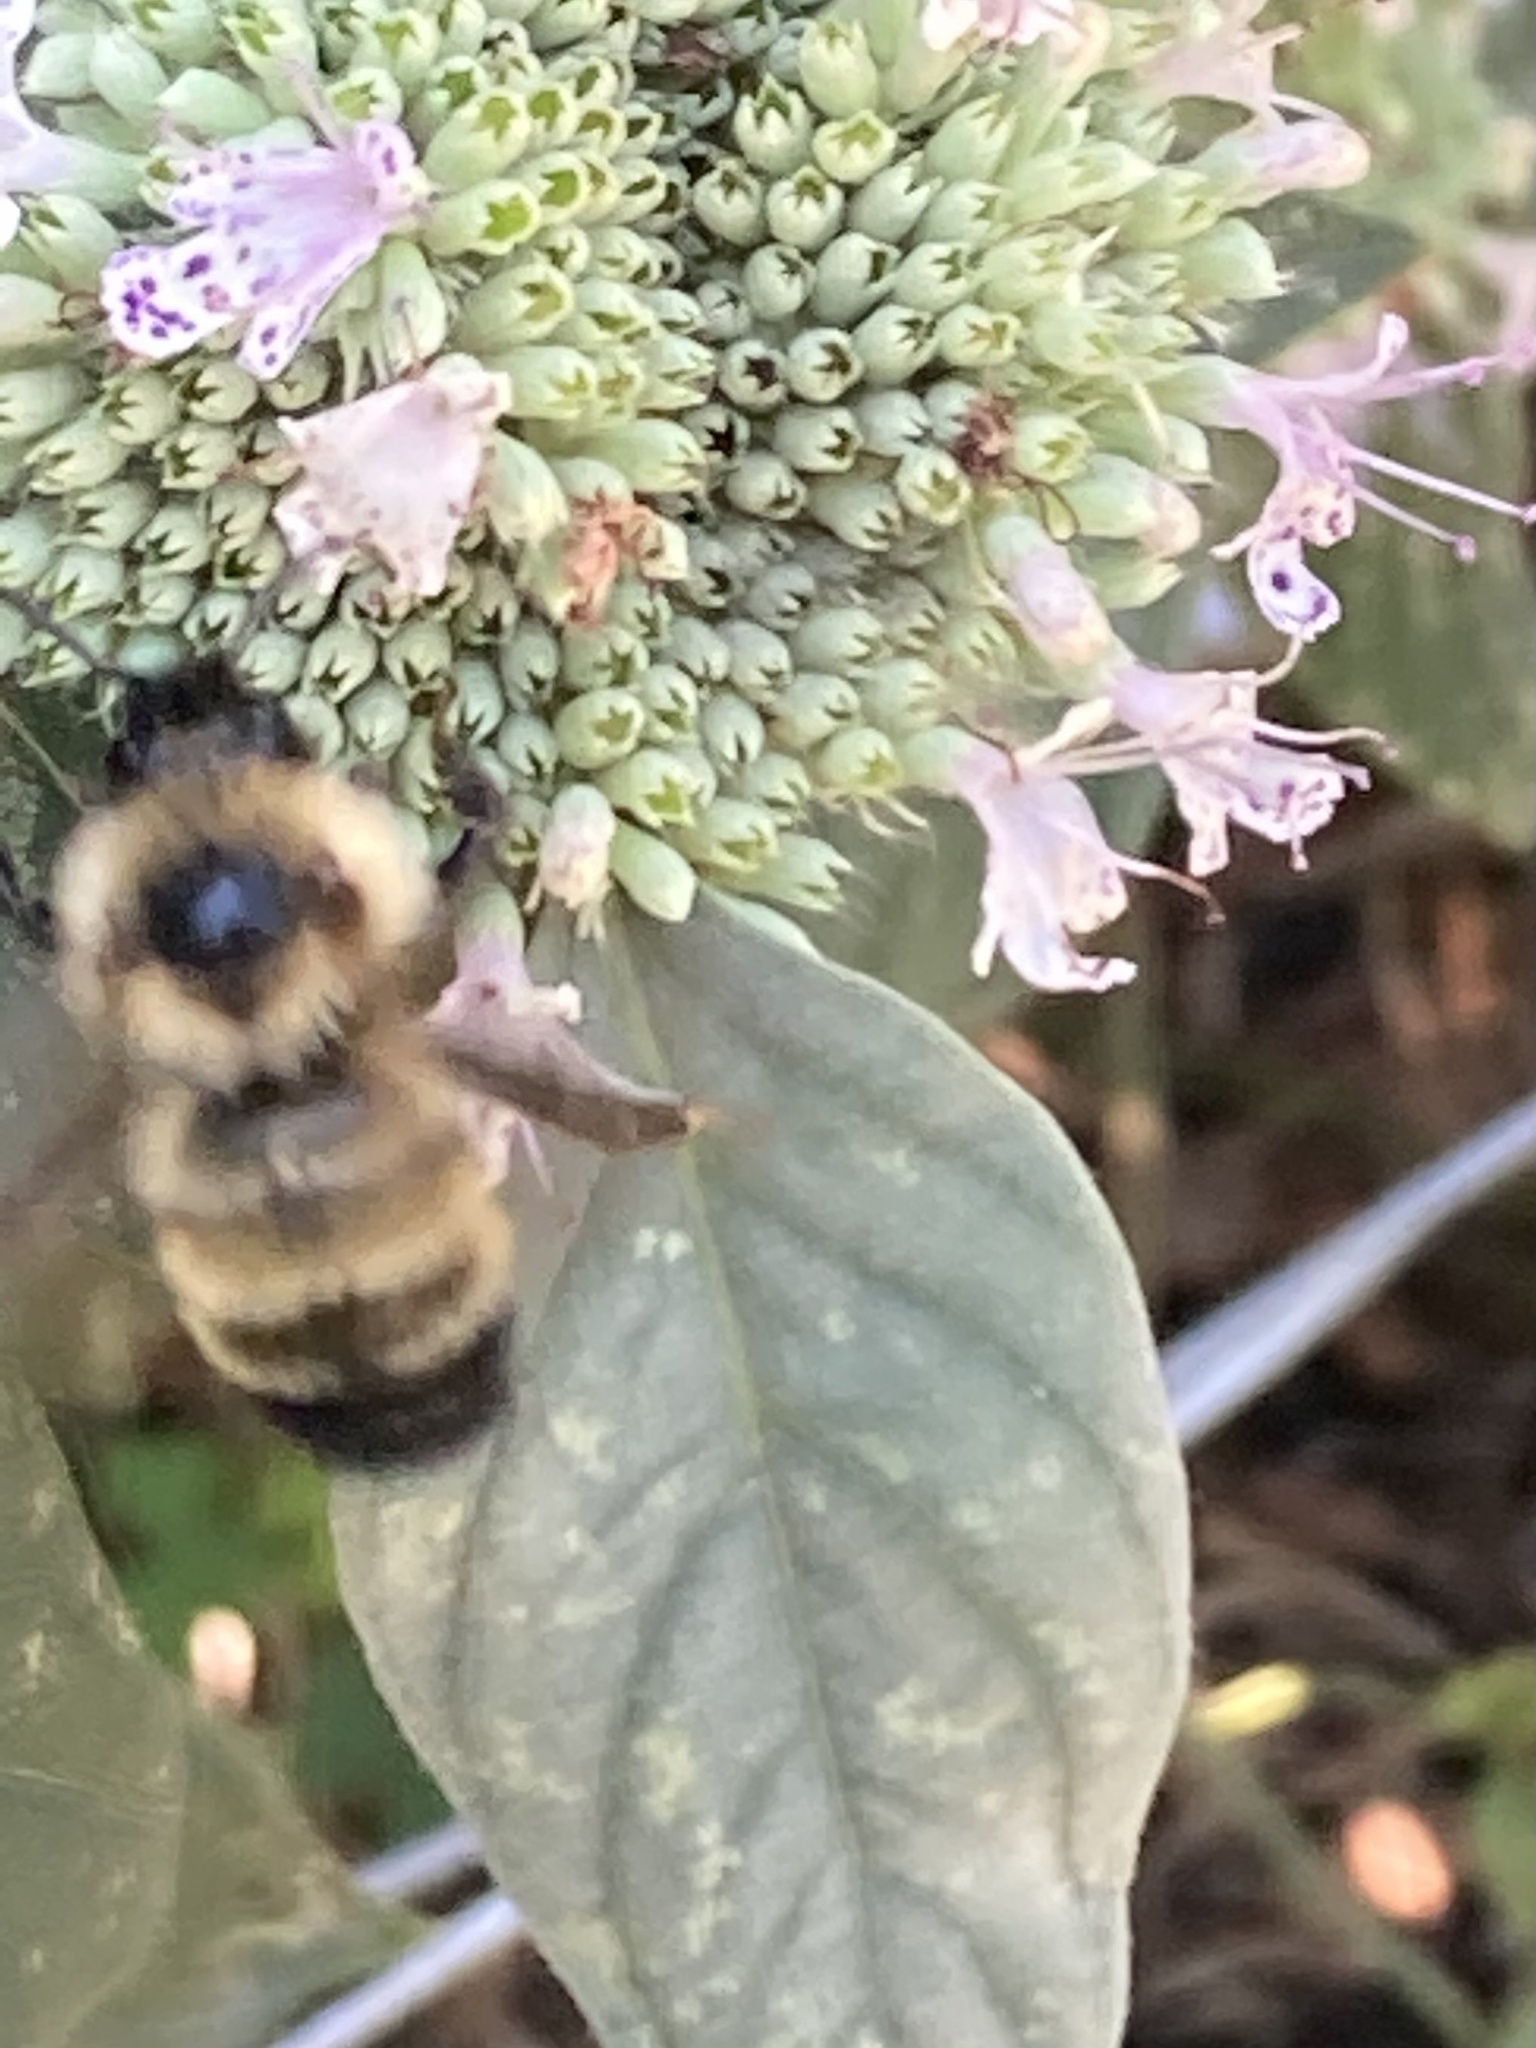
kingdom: Animalia
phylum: Arthropoda
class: Insecta
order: Hymenoptera
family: Apidae
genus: Bombus
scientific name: Bombus citrinus
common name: Lemon cuckoo bumble bee
